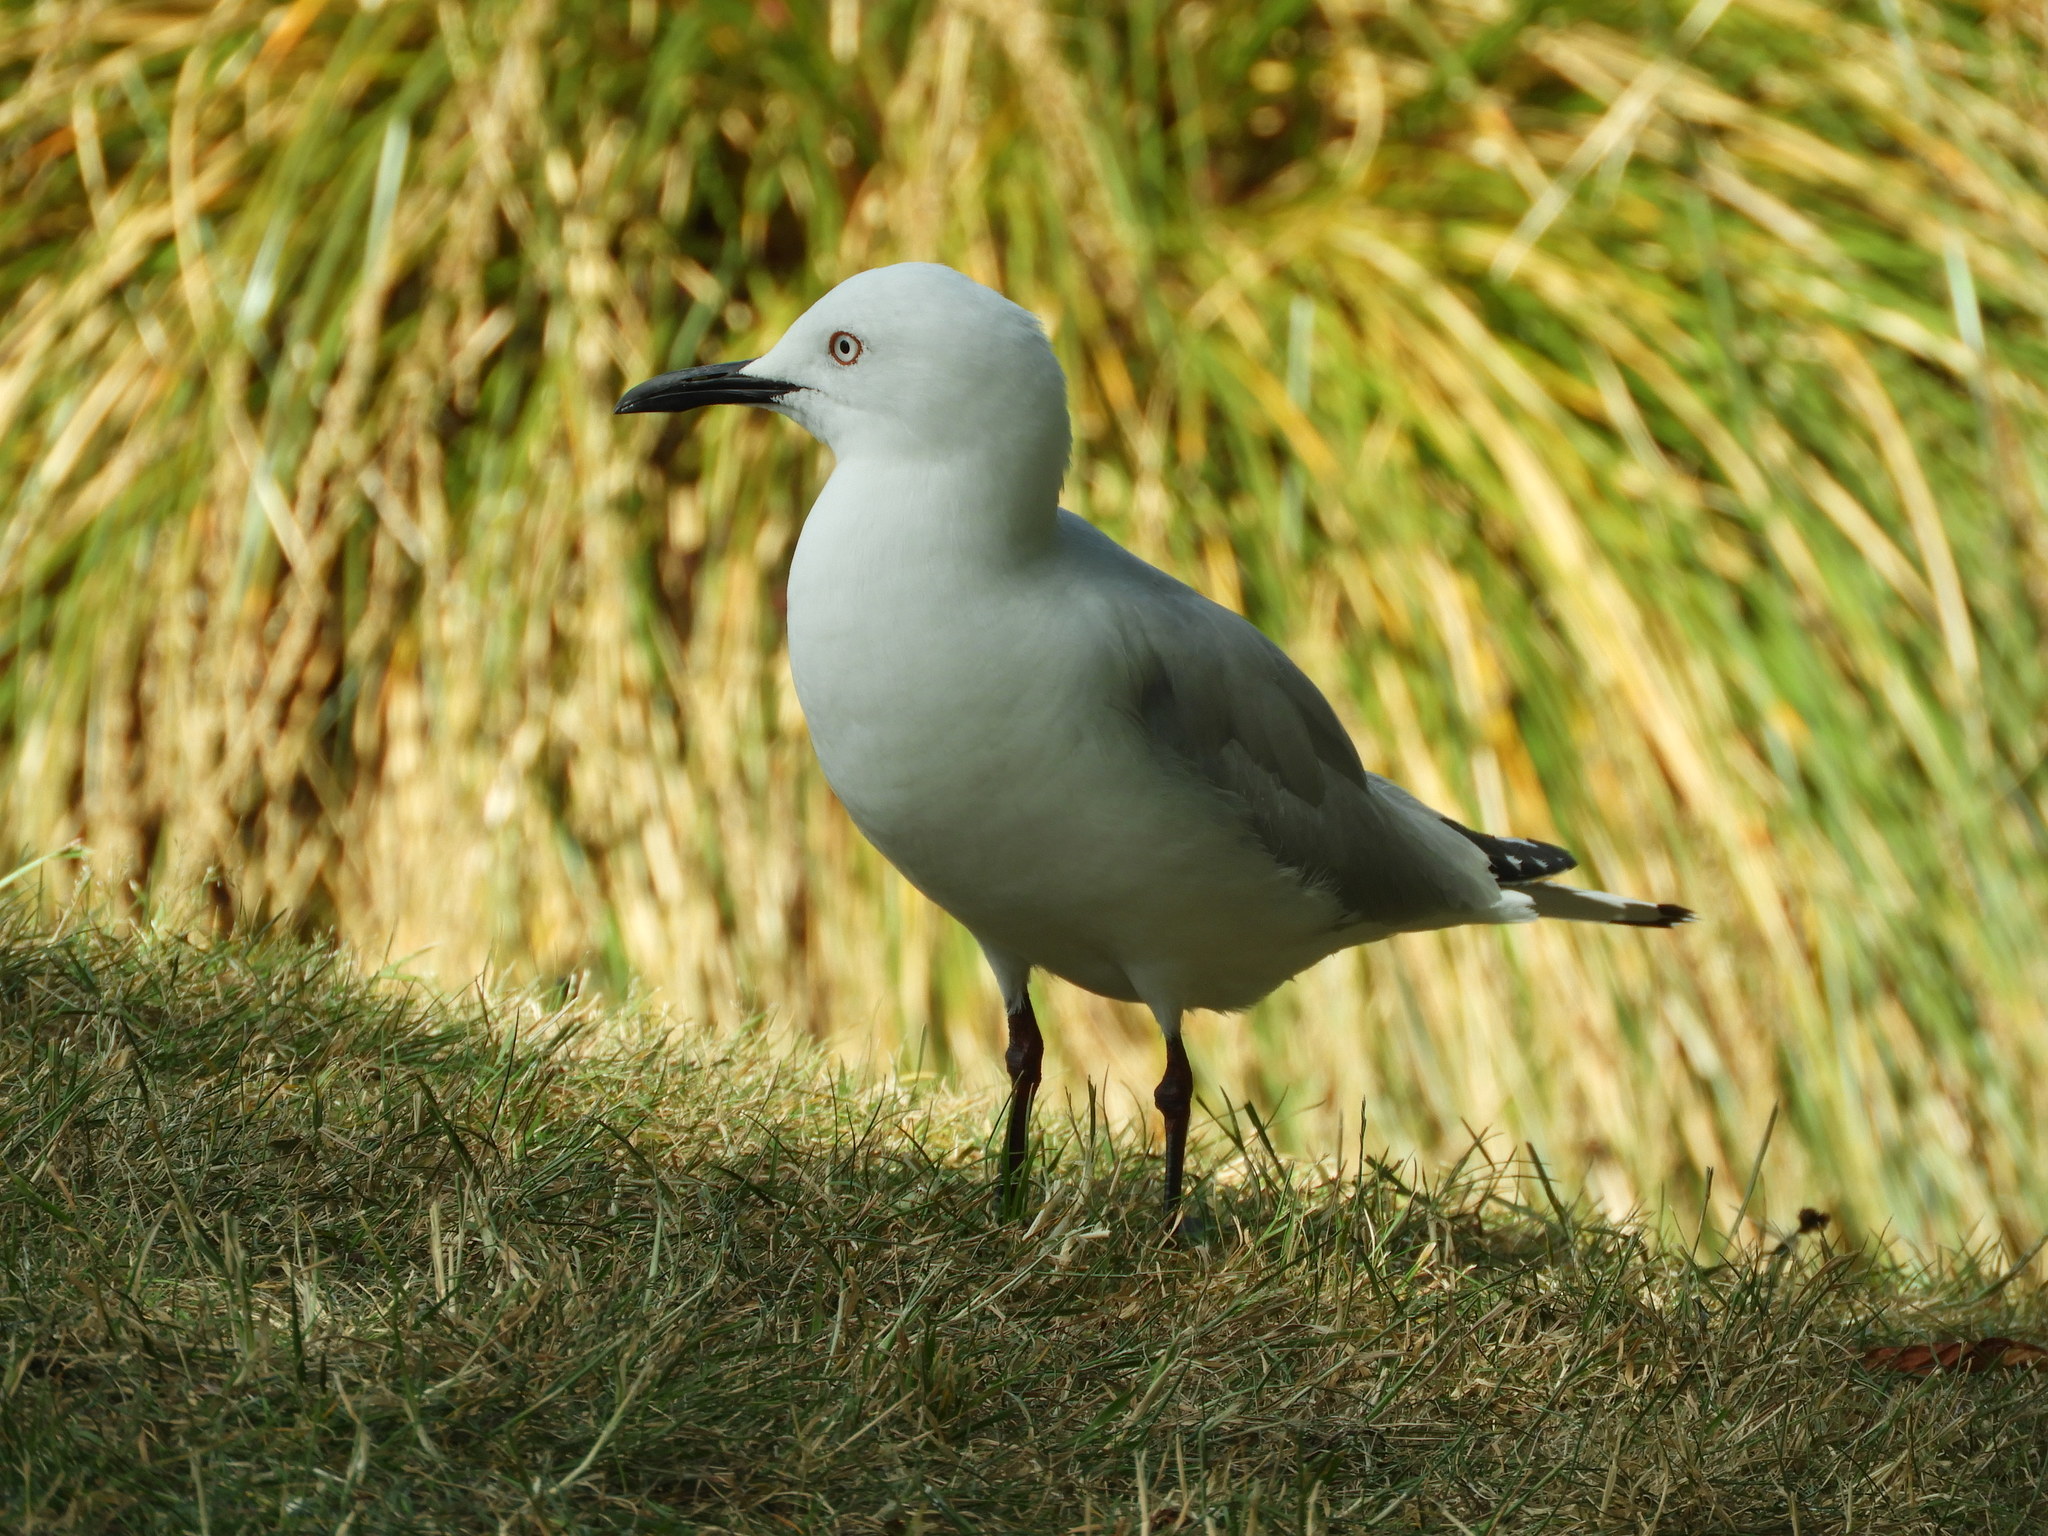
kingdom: Animalia
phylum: Chordata
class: Aves
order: Charadriiformes
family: Laridae
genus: Chroicocephalus
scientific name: Chroicocephalus bulleri
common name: Black-billed gull
